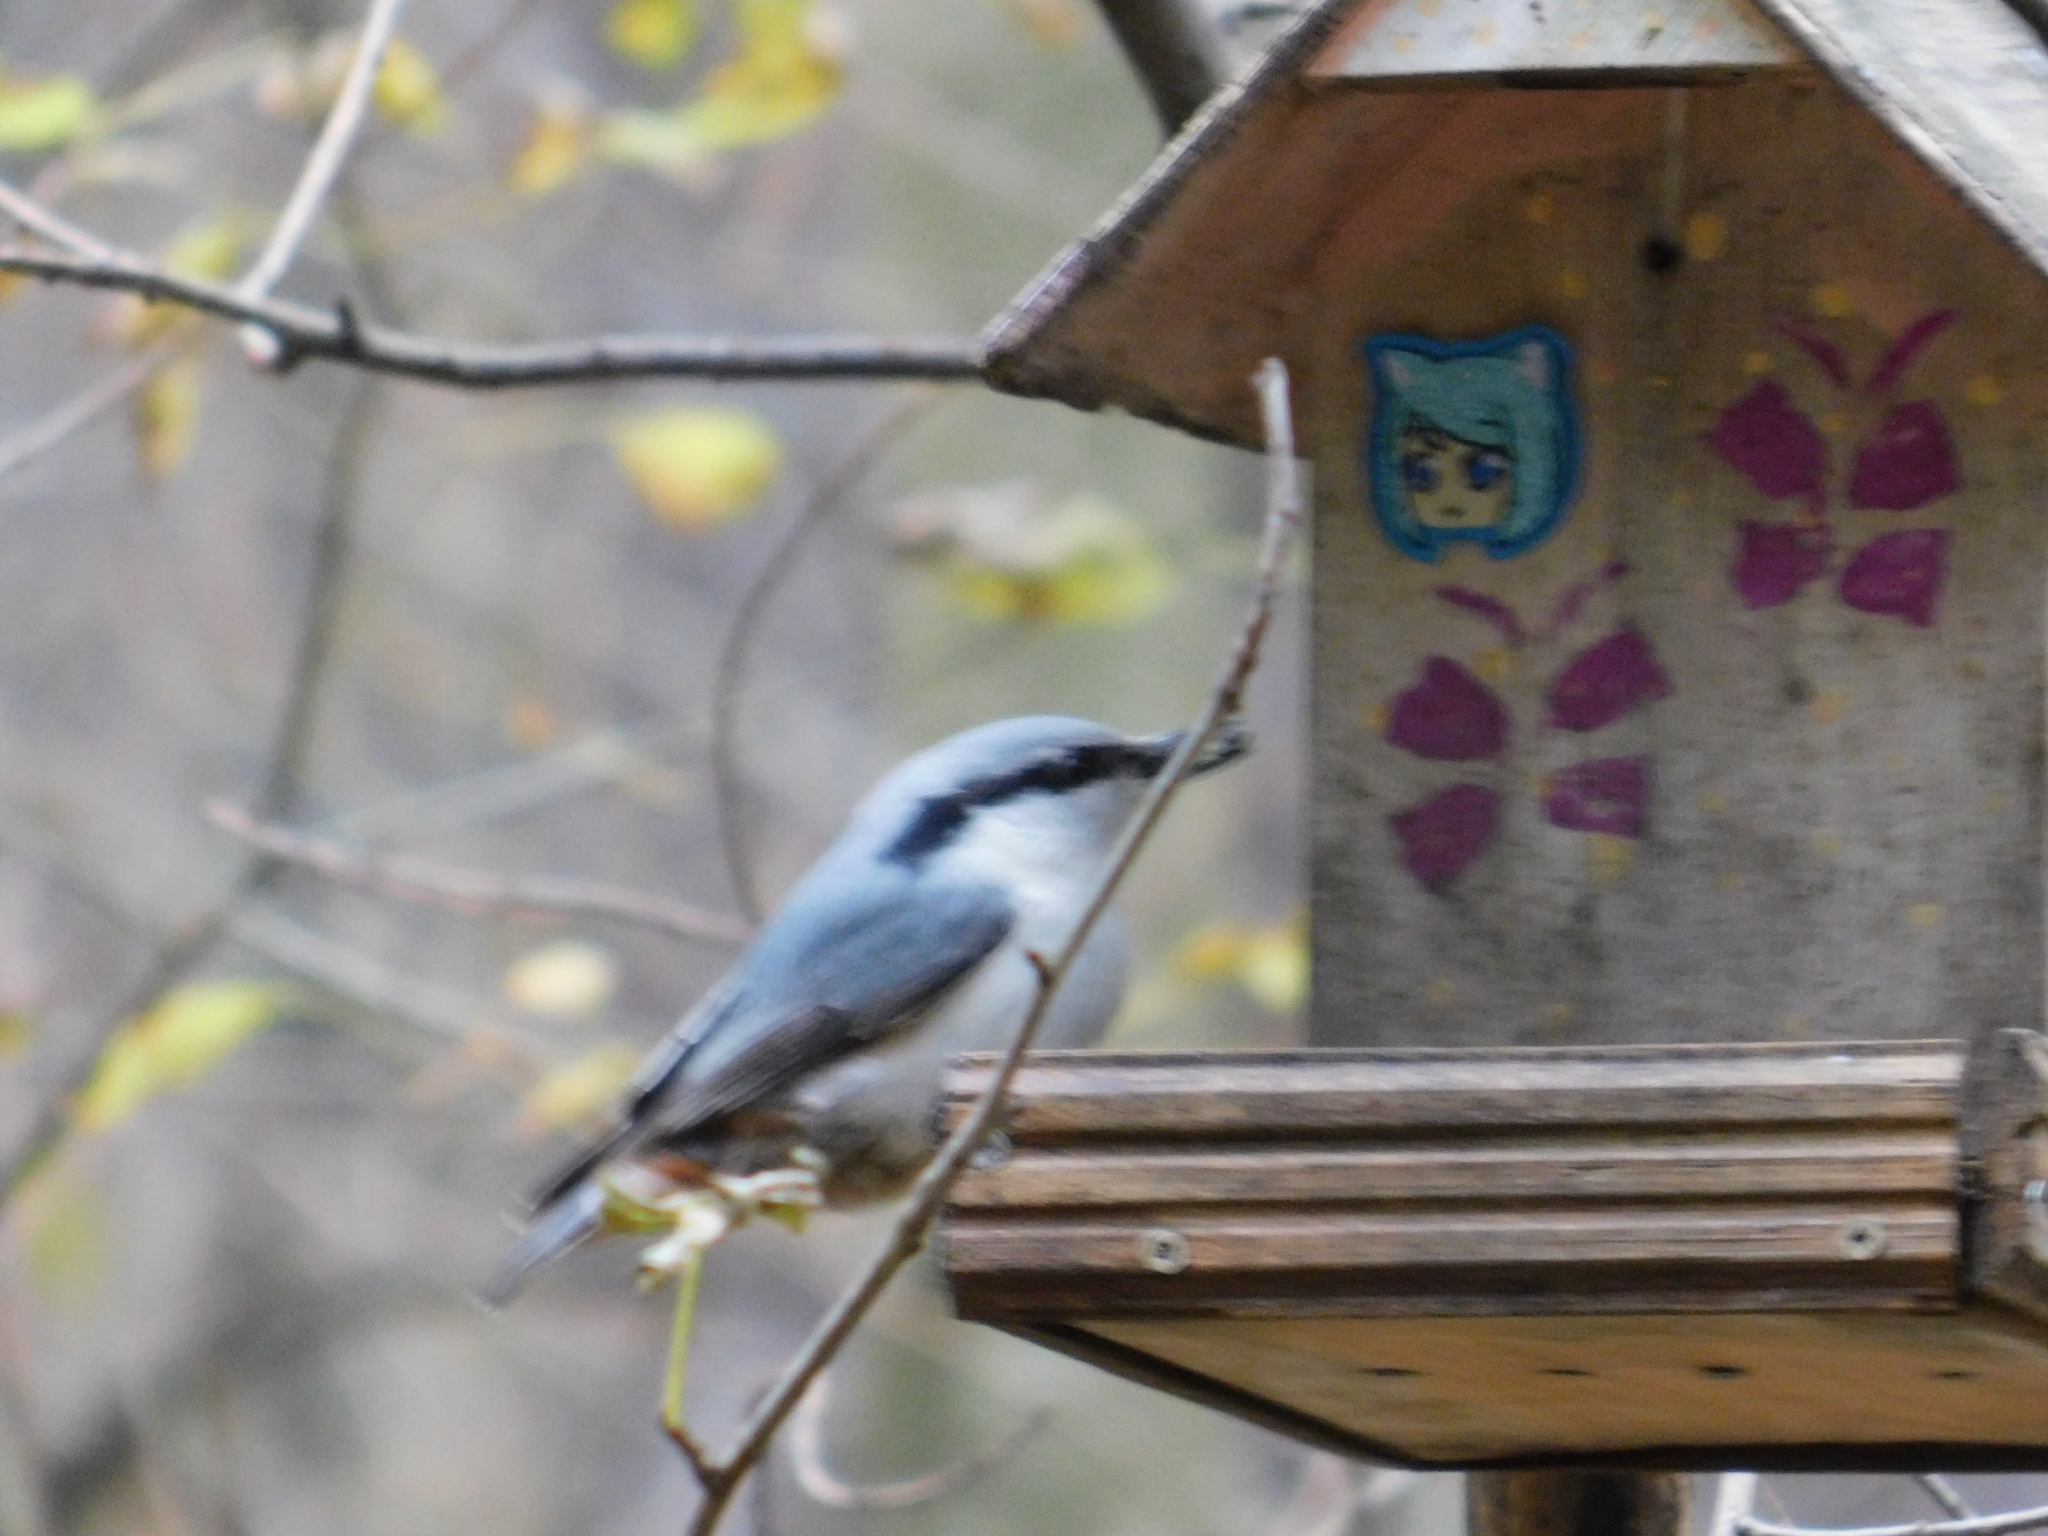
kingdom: Animalia
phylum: Chordata
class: Aves
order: Passeriformes
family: Sittidae
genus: Sitta
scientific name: Sitta europaea
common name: Eurasian nuthatch
